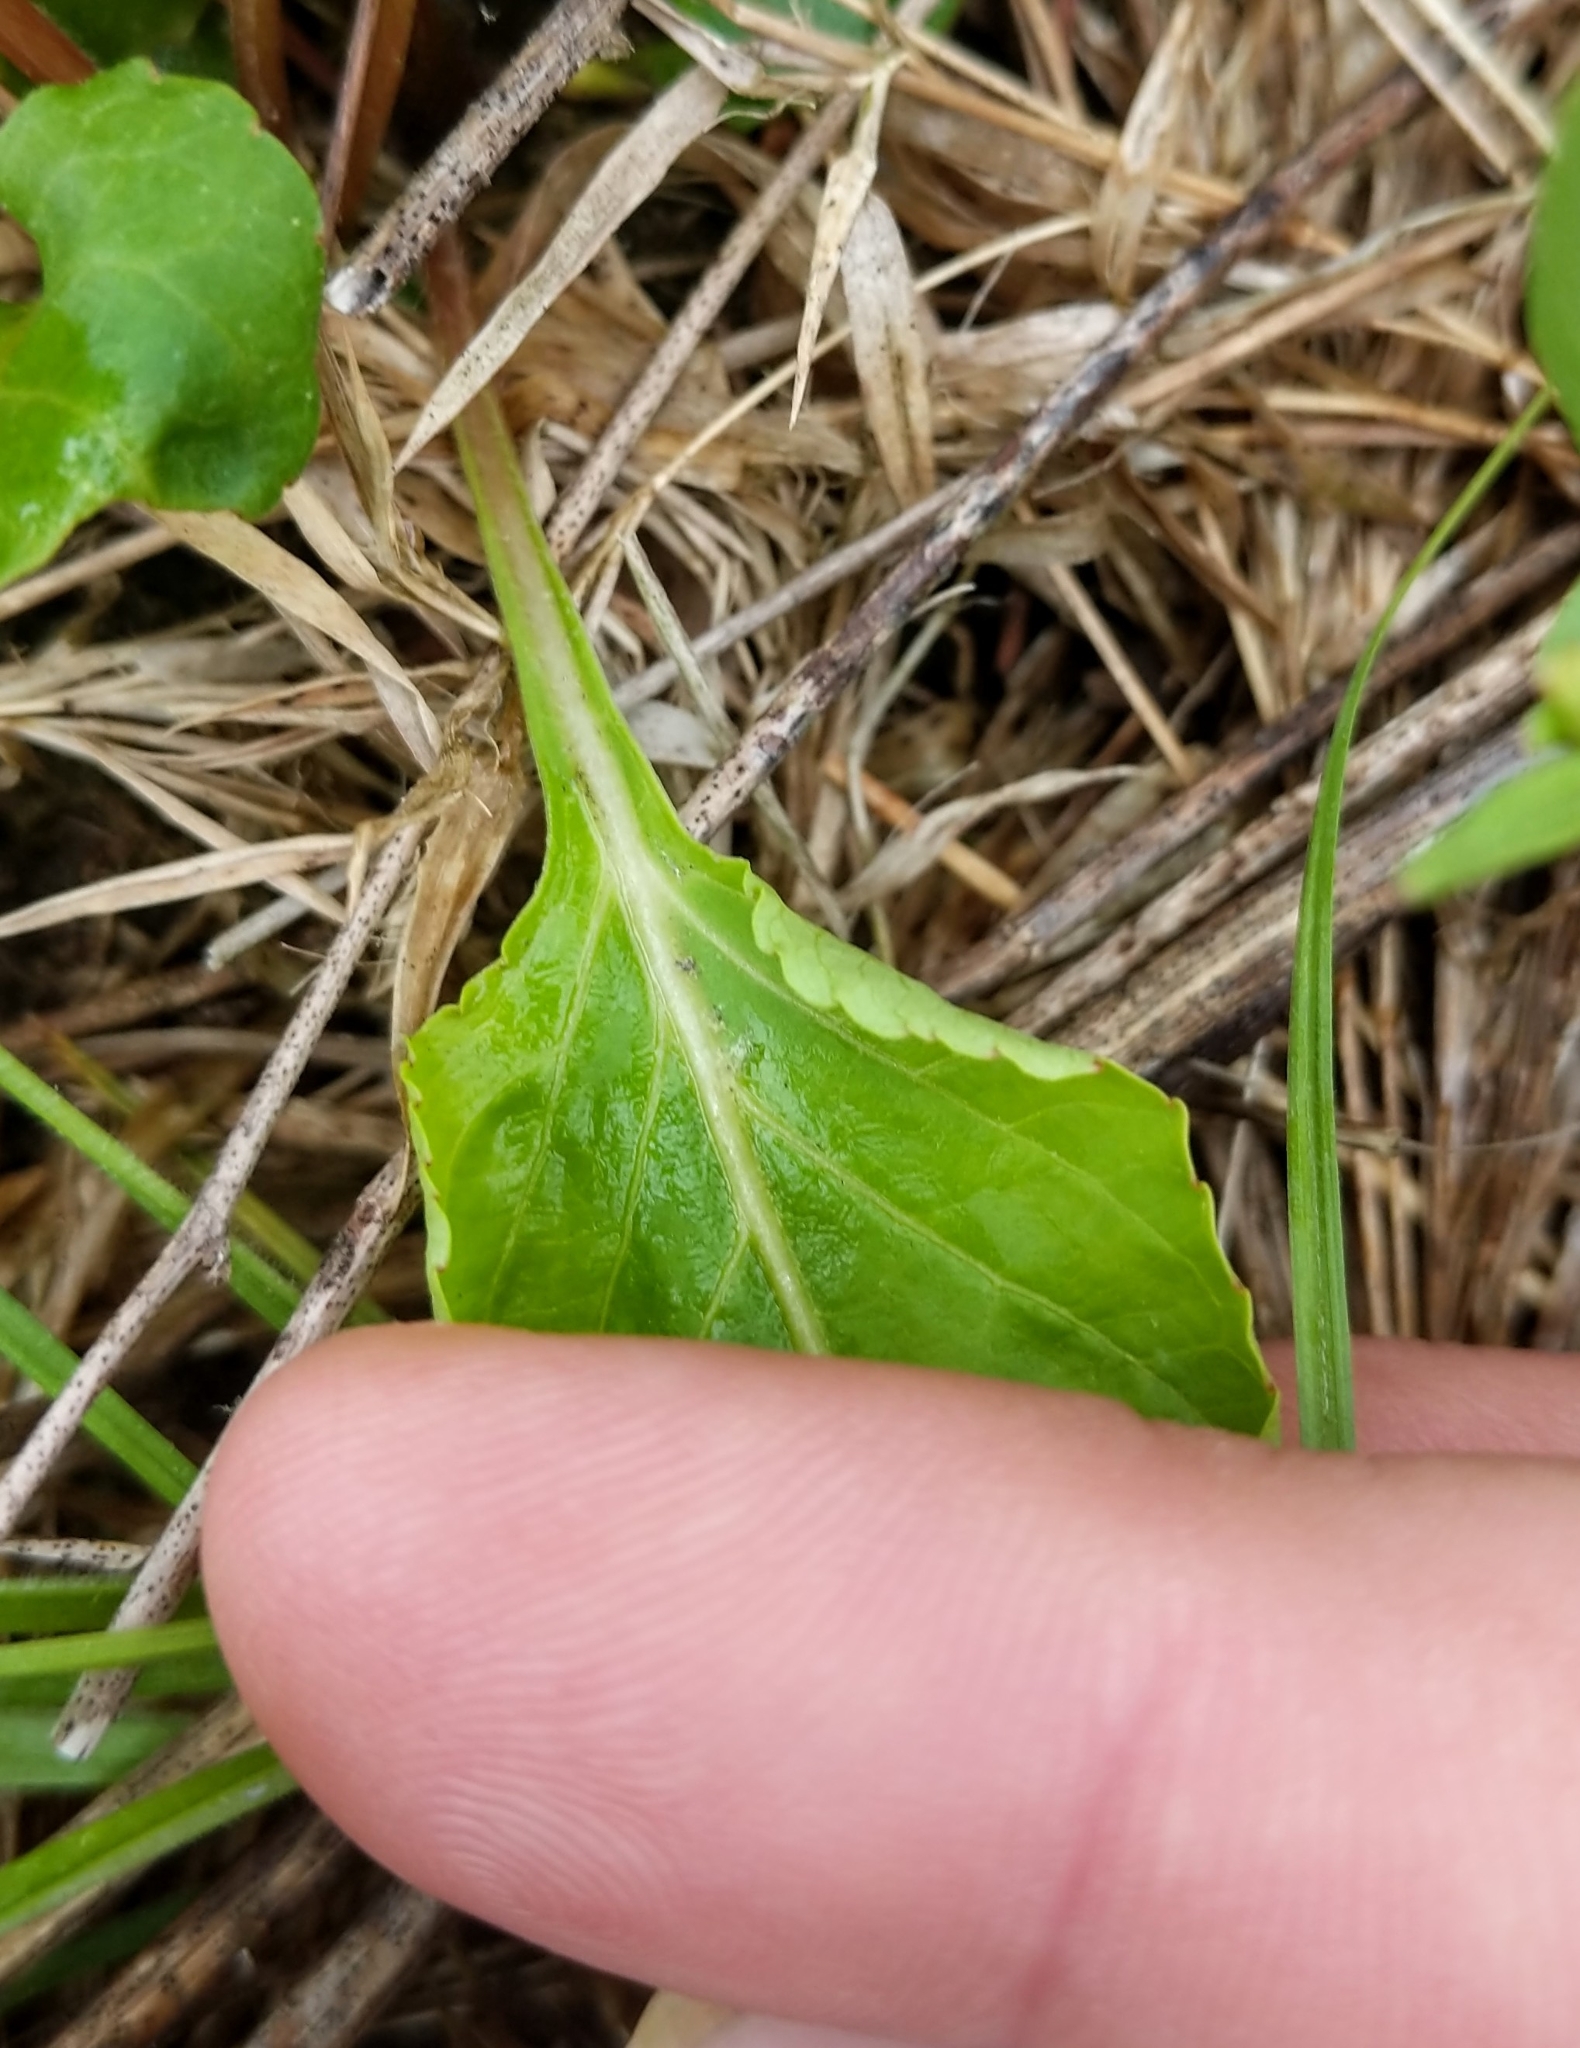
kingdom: Plantae
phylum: Tracheophyta
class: Magnoliopsida
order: Malpighiales
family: Violaceae
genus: Viola
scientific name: Viola primulifolia
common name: Primrose-leaf violet
